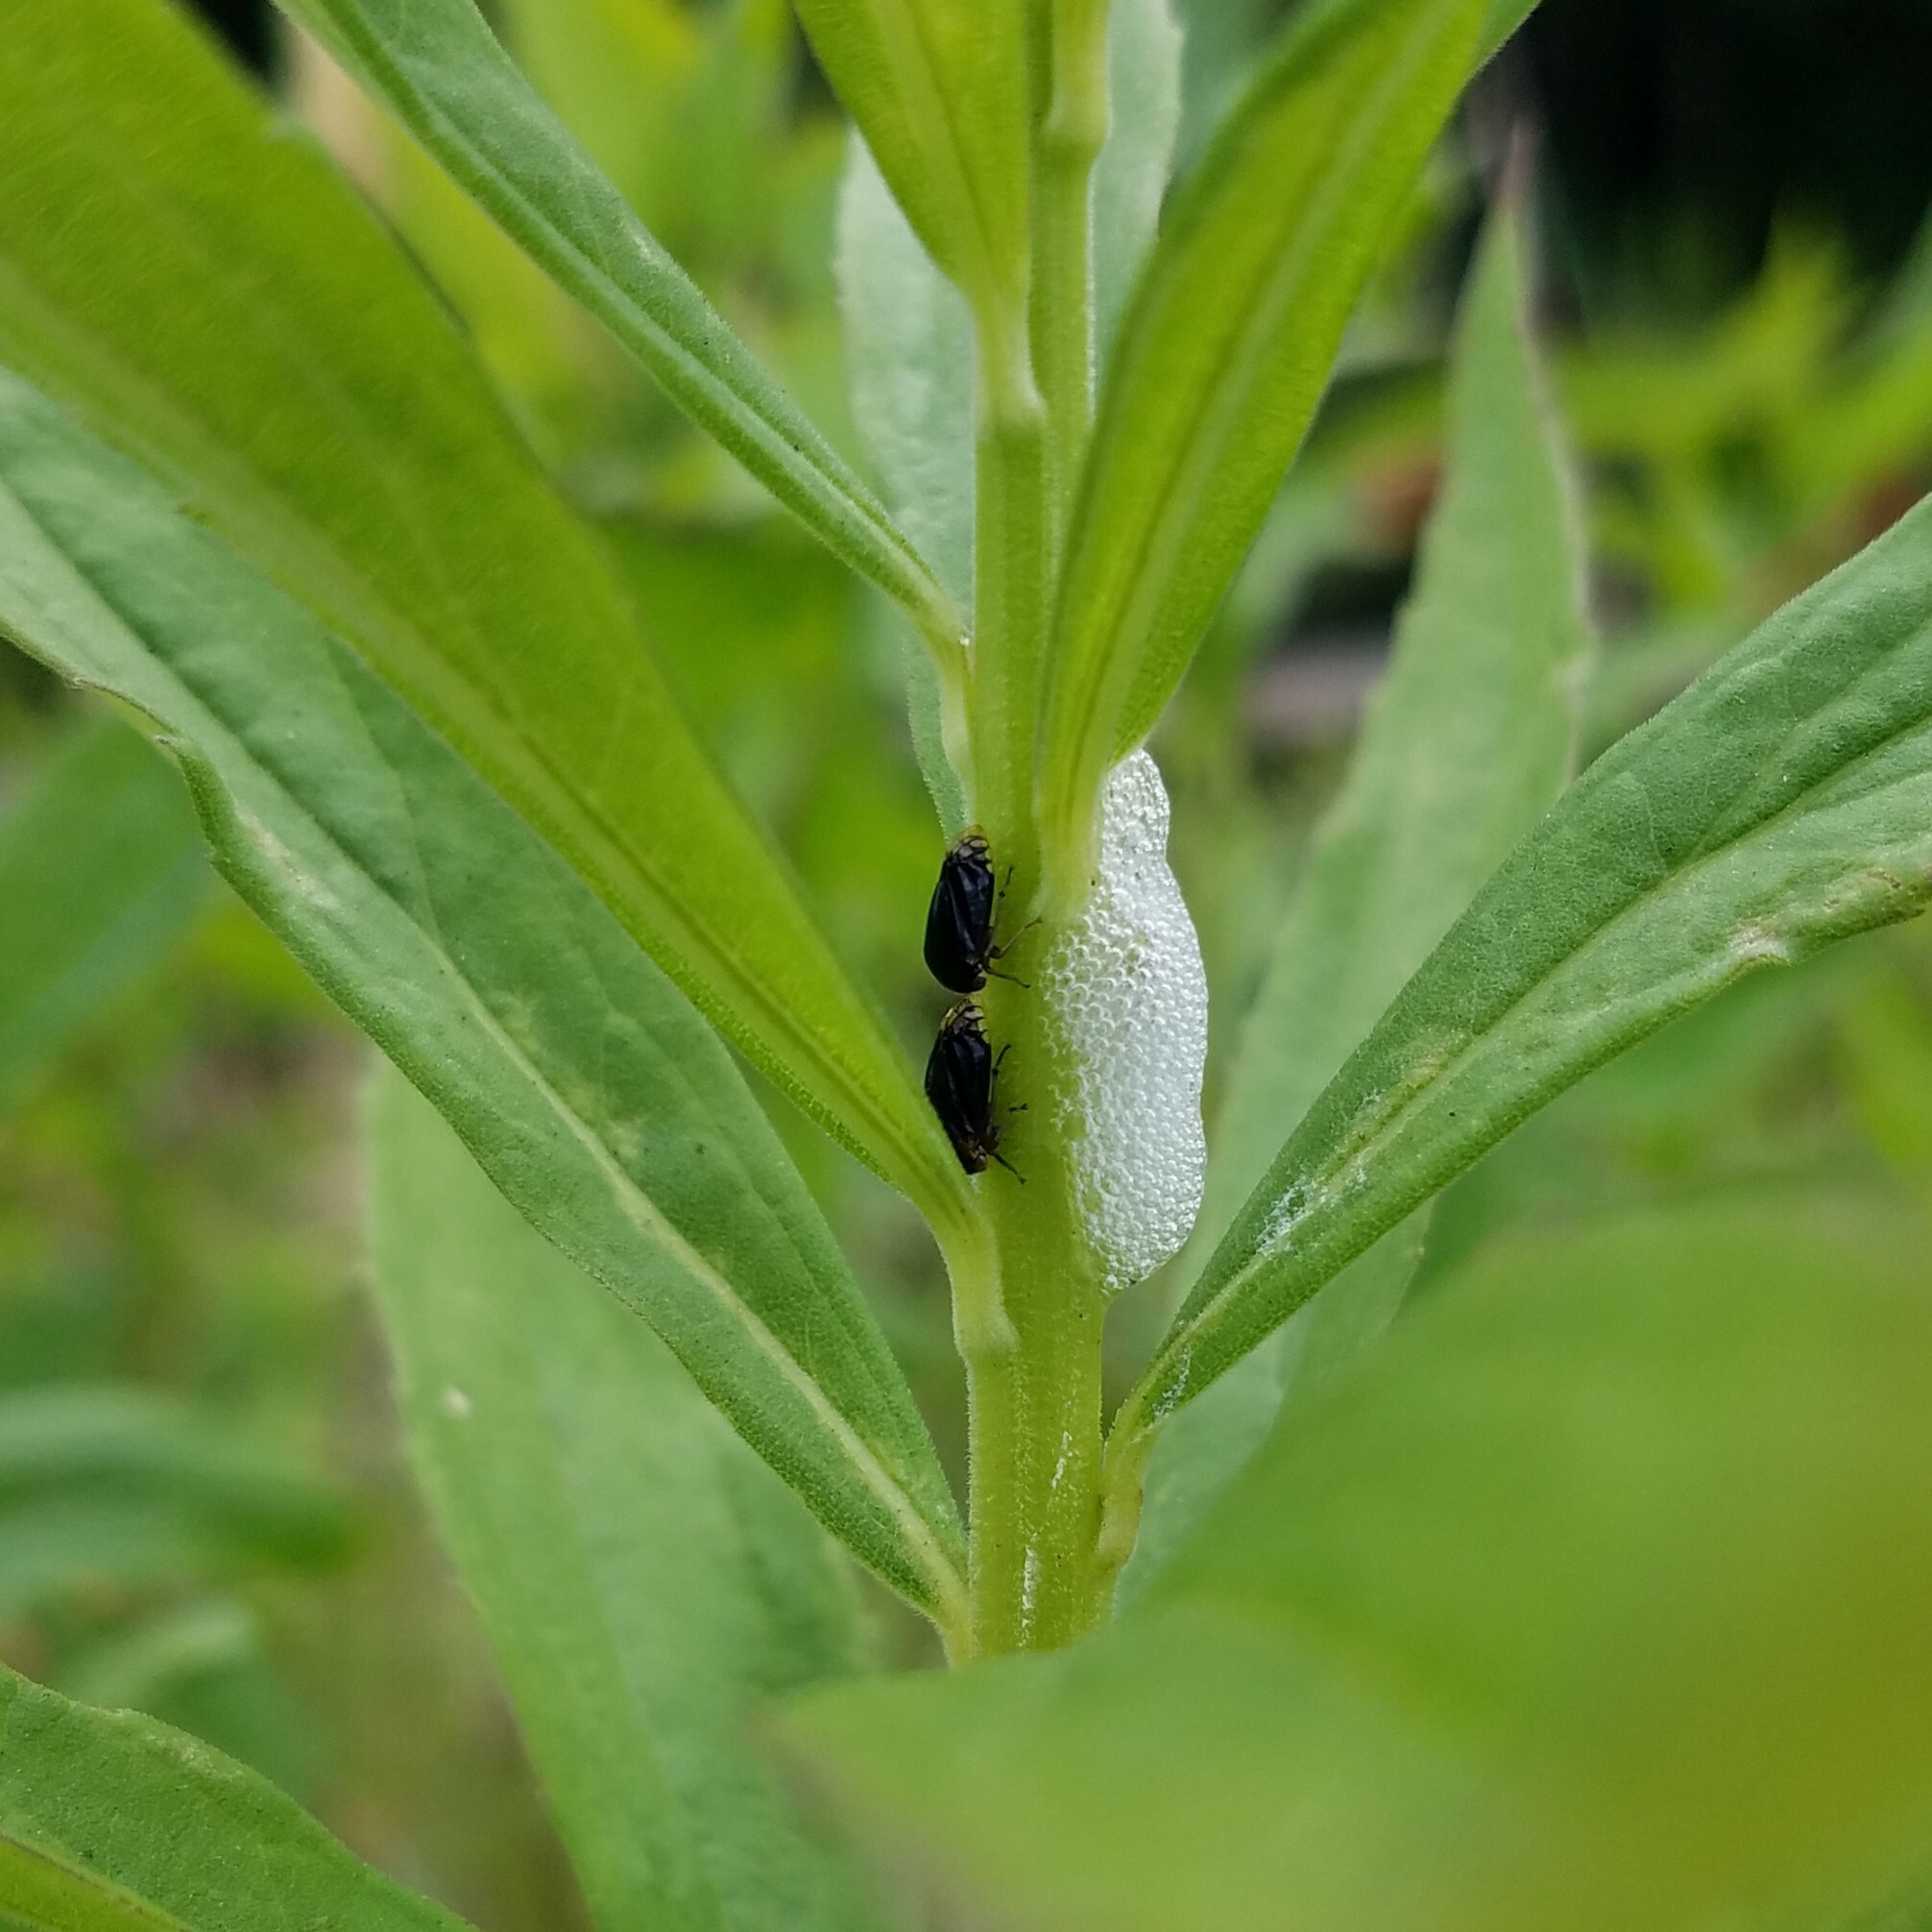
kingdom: Animalia
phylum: Arthropoda
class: Insecta
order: Hemiptera
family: Membracidae
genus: Acutalis
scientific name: Acutalis tartarea
